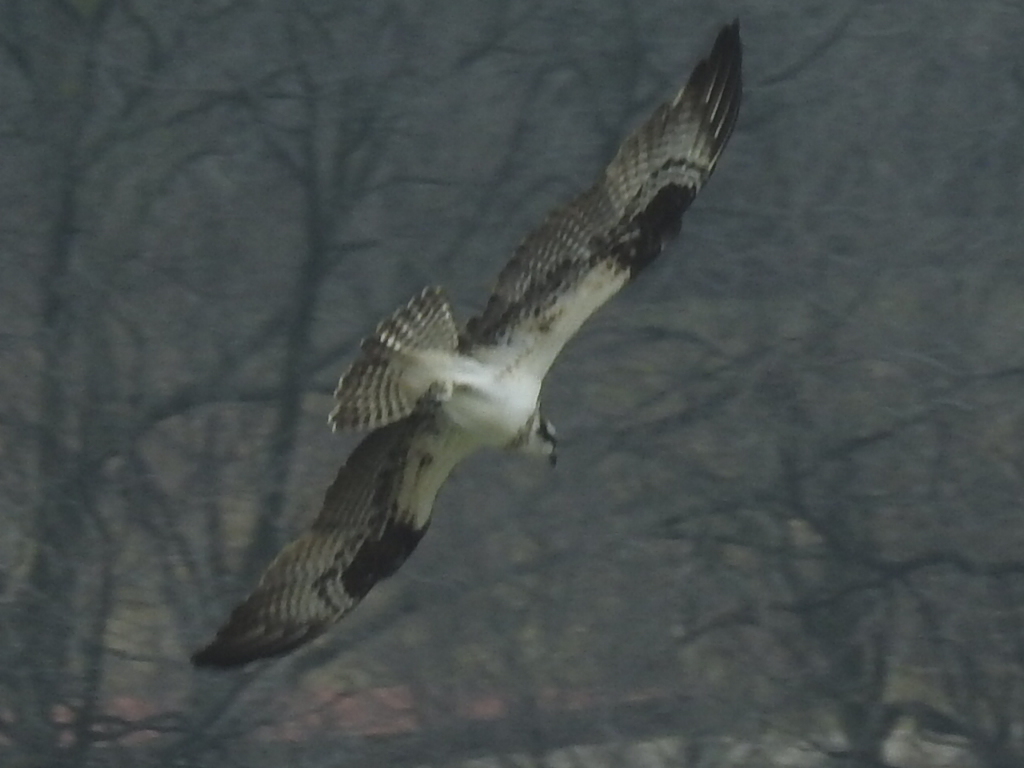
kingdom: Animalia
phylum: Chordata
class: Aves
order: Accipitriformes
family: Pandionidae
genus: Pandion
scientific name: Pandion haliaetus
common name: Osprey
